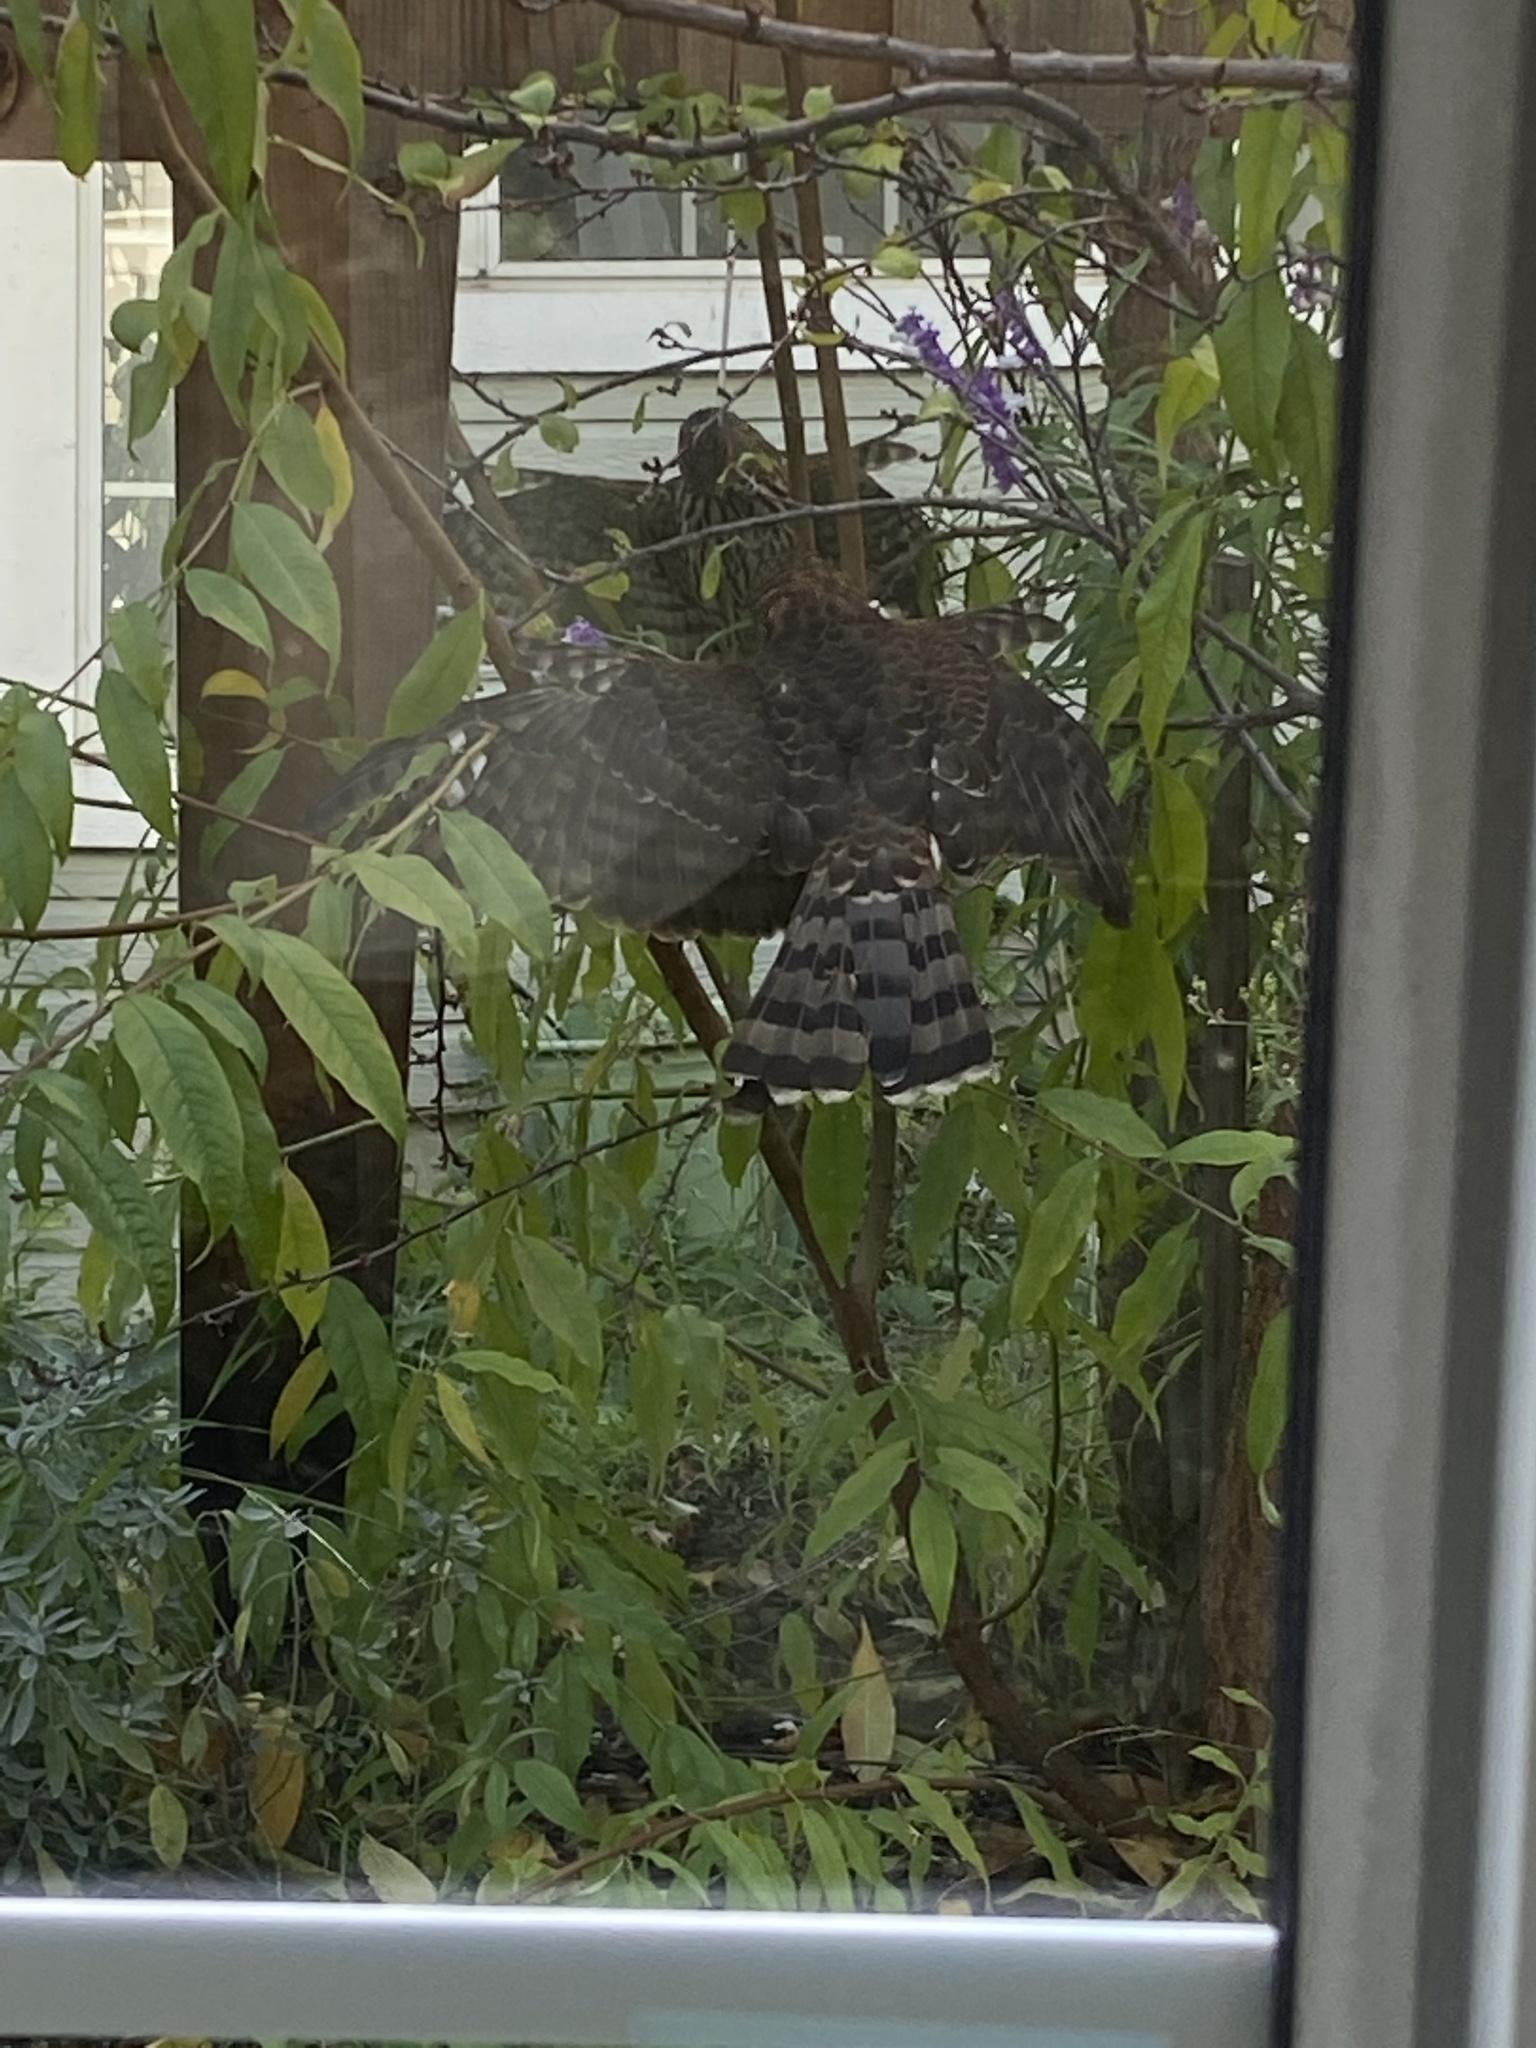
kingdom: Animalia
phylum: Chordata
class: Aves
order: Accipitriformes
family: Accipitridae
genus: Accipiter
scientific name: Accipiter cooperii
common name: Cooper's hawk
